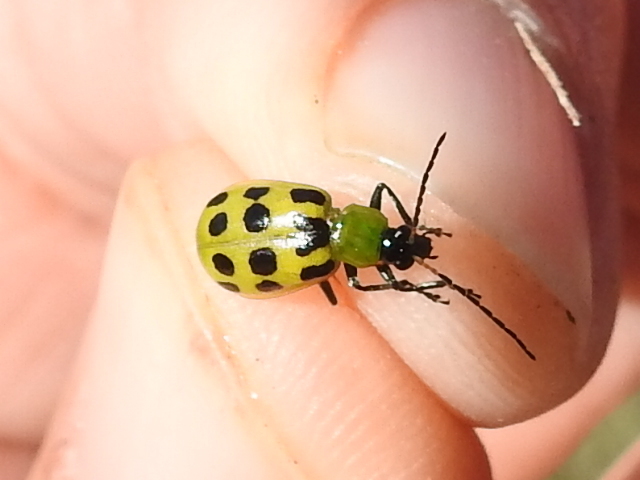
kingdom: Animalia
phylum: Arthropoda
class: Insecta
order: Coleoptera
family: Chrysomelidae
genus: Diabrotica
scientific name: Diabrotica undecimpunctata
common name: Spotted cucumber beetle
